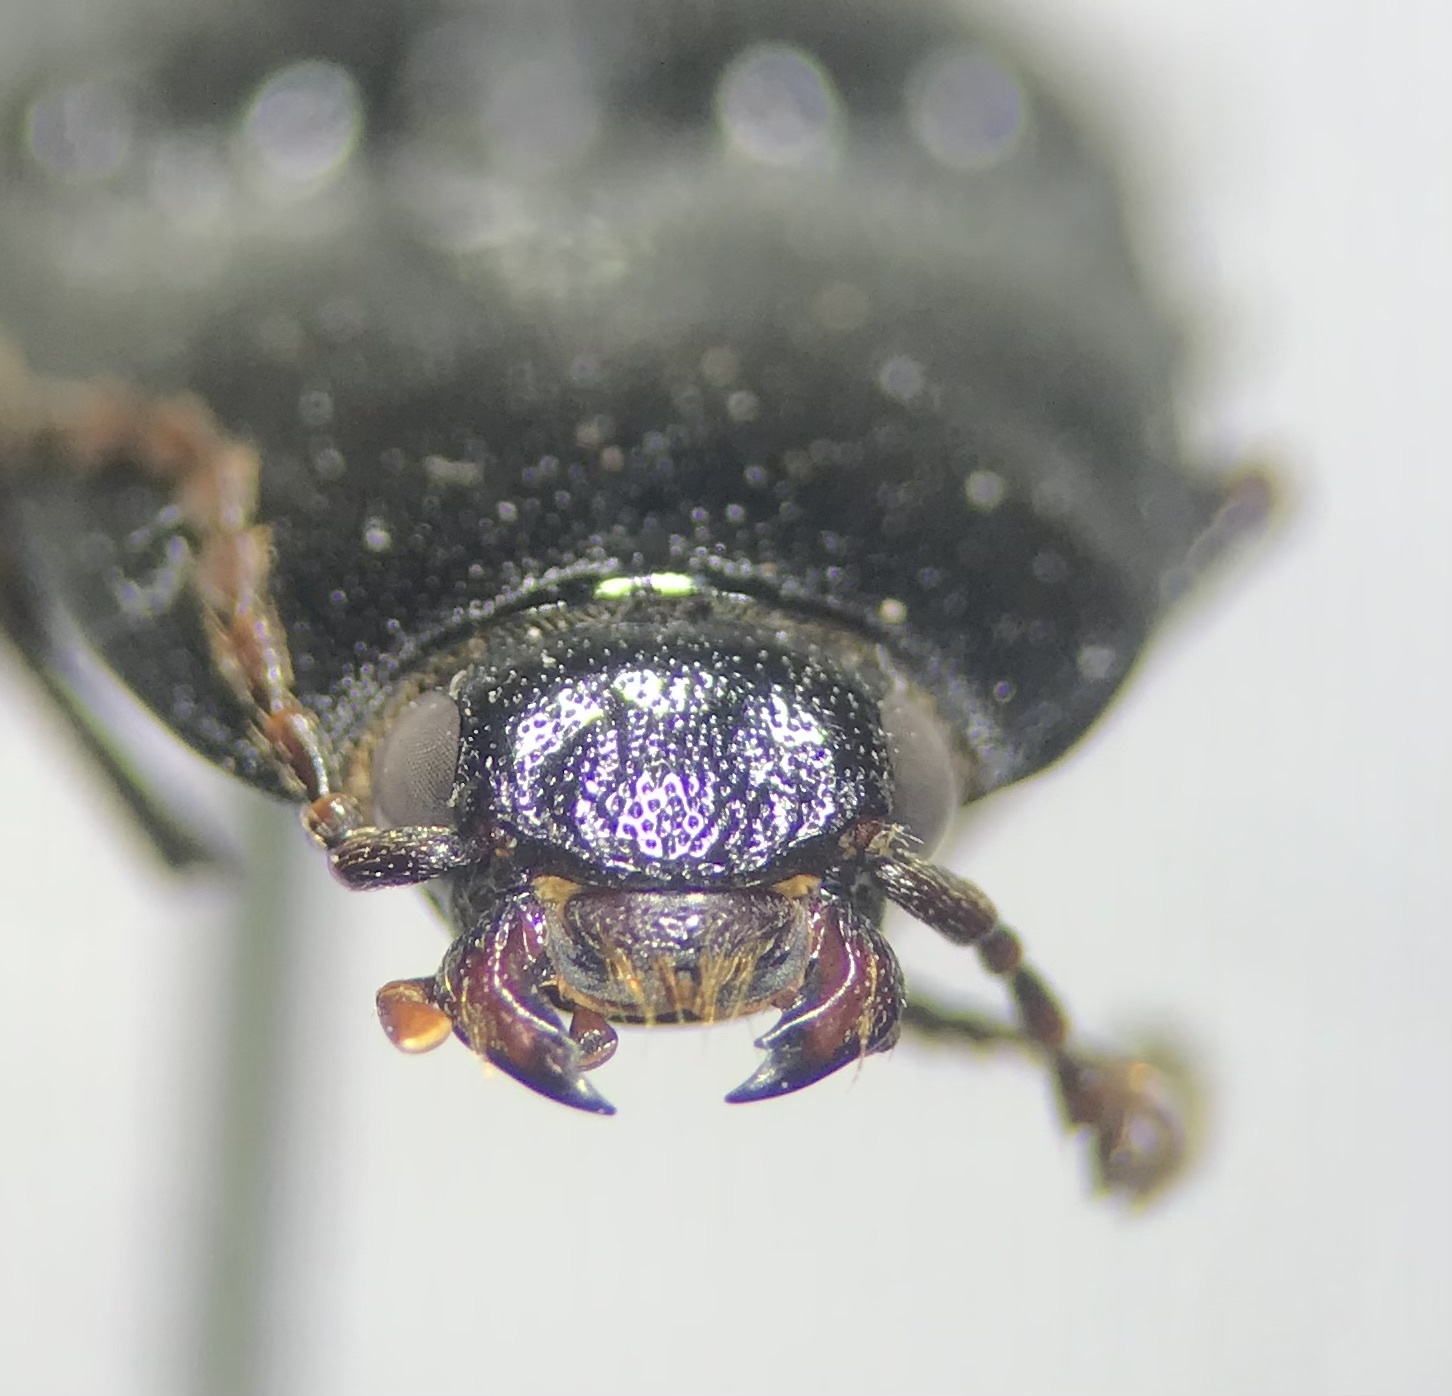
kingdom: Animalia
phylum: Arthropoda
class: Insecta
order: Coleoptera
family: Elateridae
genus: Melanactes
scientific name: Melanactes
